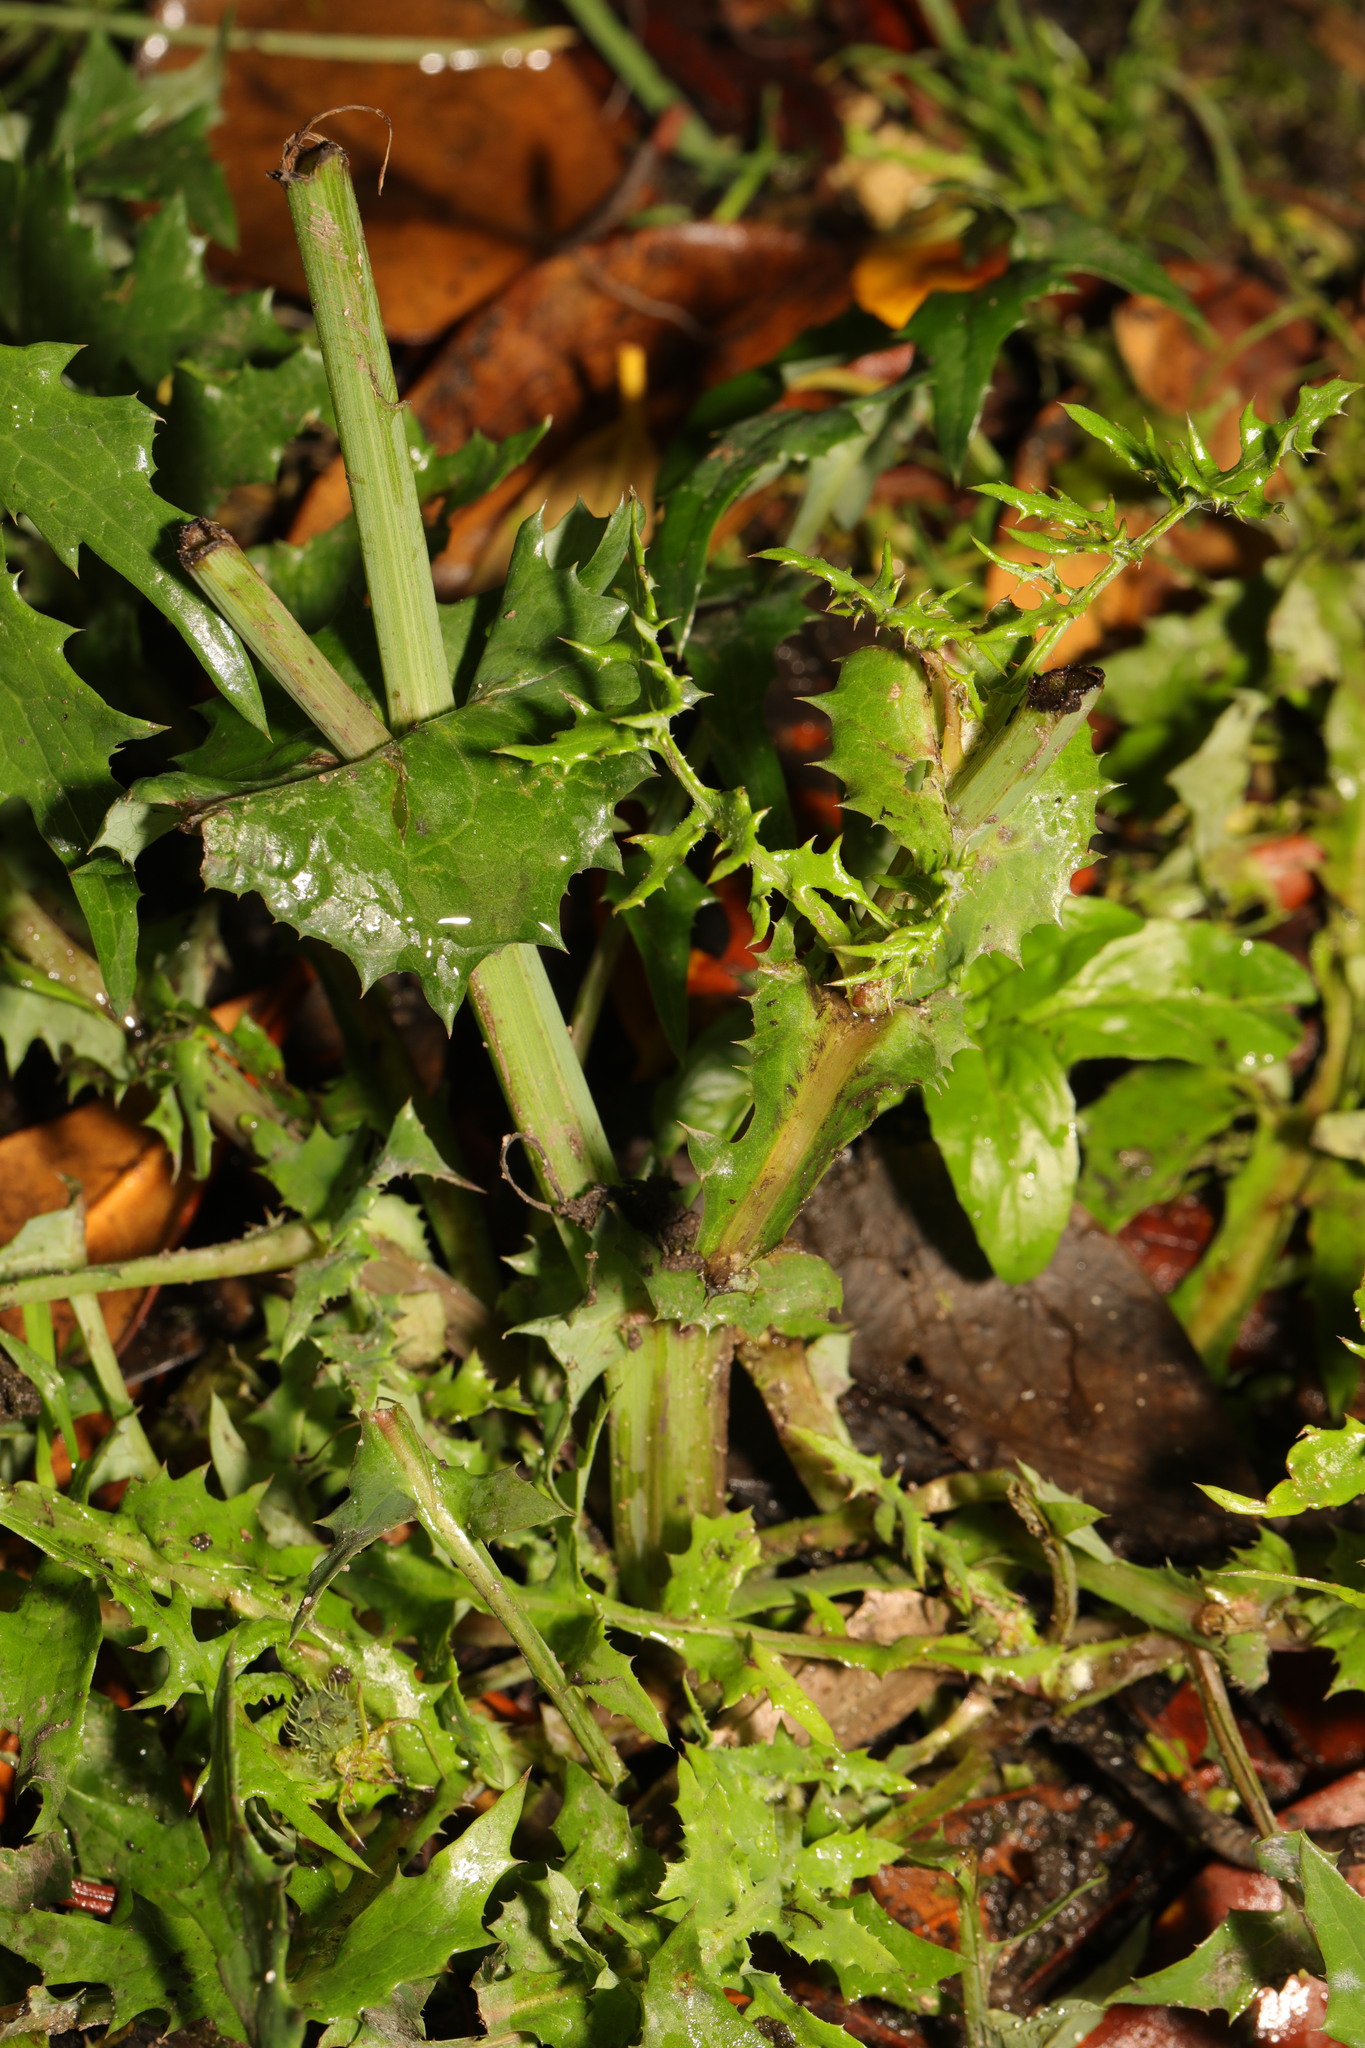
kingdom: Plantae
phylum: Tracheophyta
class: Magnoliopsida
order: Asterales
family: Asteraceae
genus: Sonchus
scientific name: Sonchus asper
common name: Prickly sow-thistle
